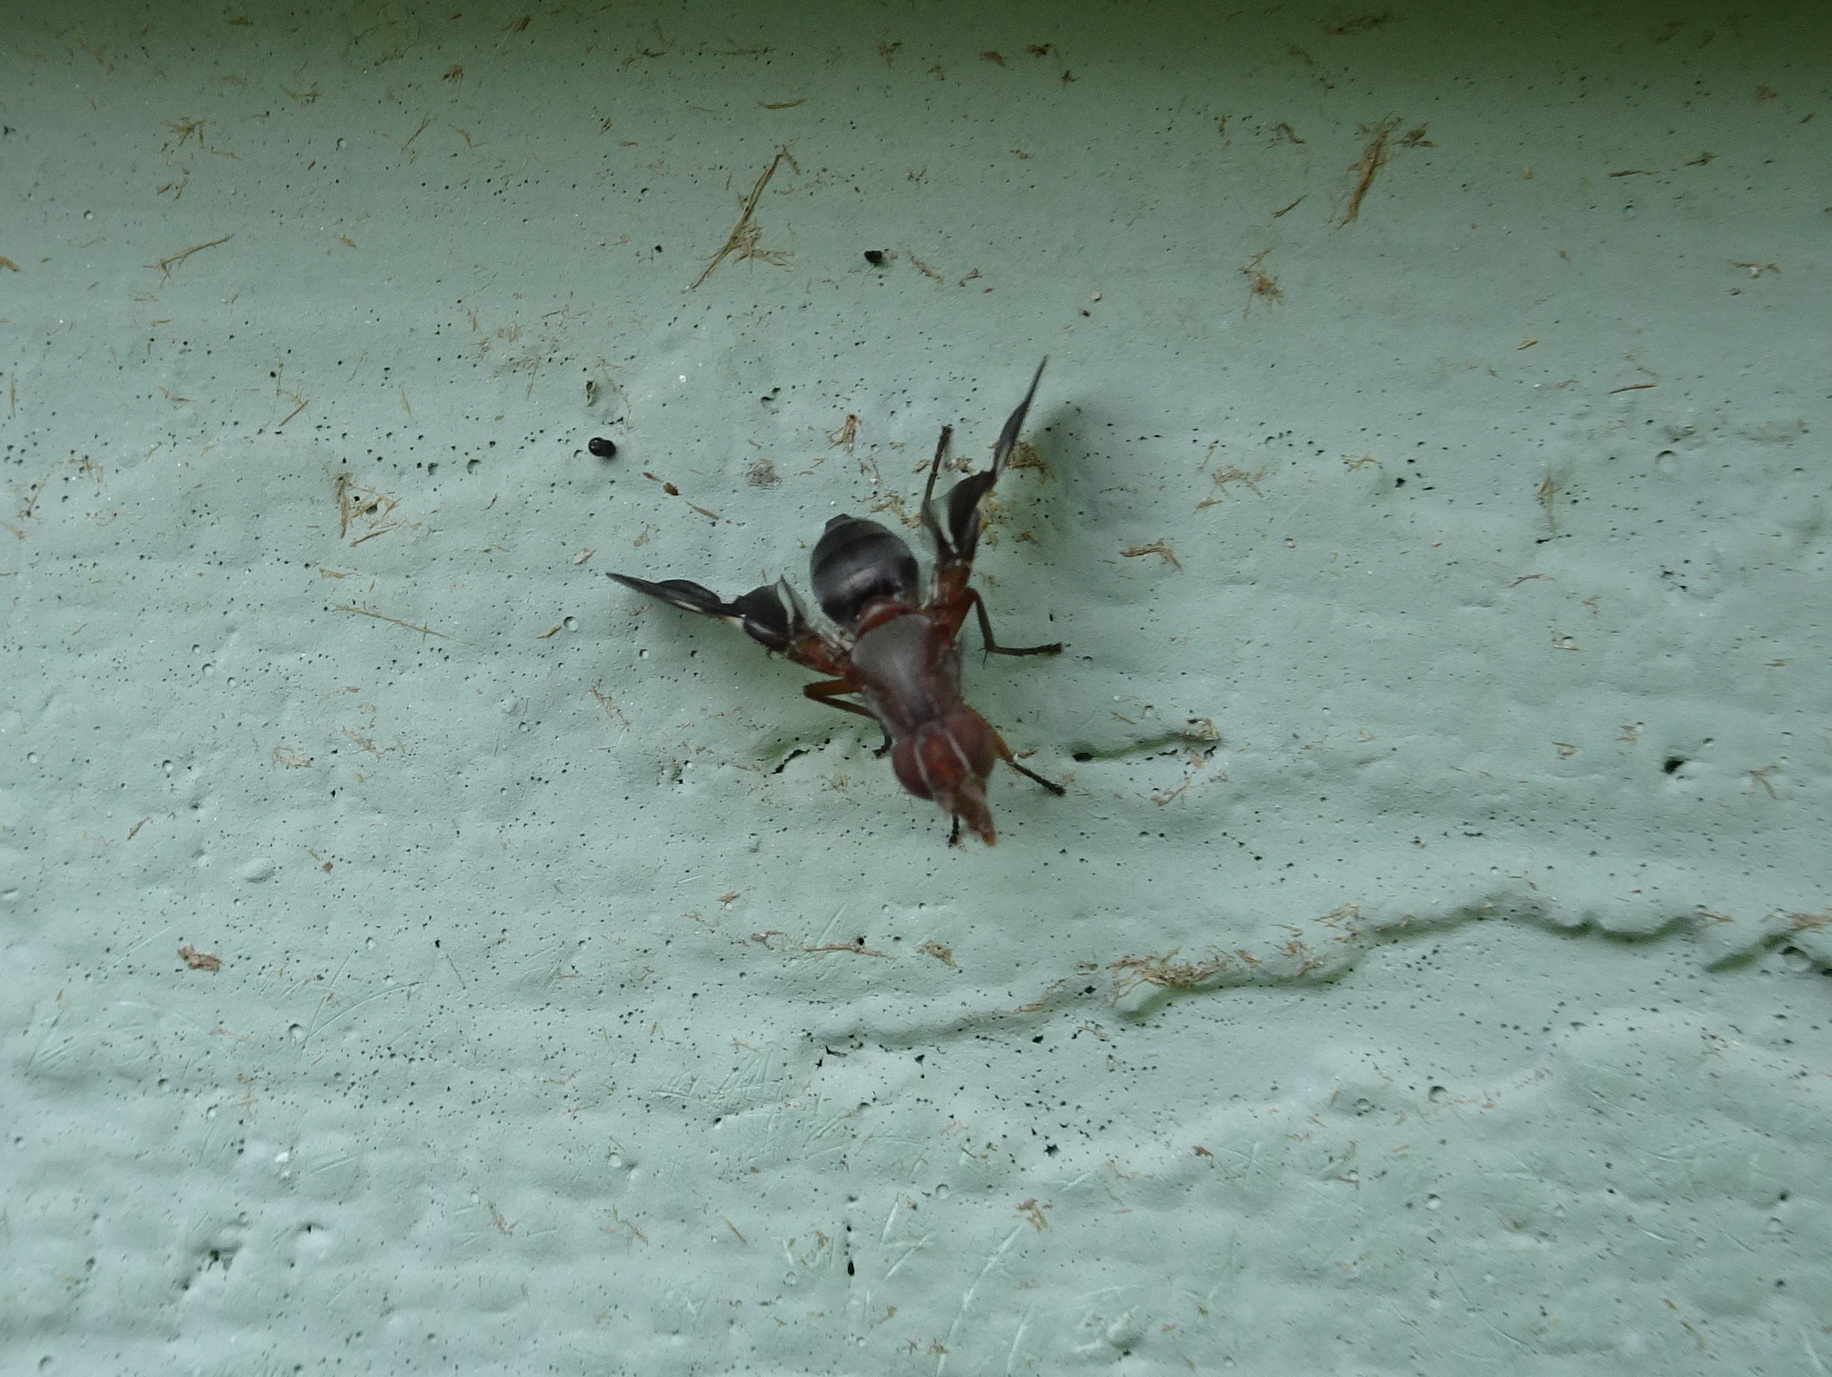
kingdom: Animalia
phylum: Arthropoda
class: Insecta
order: Diptera
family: Ulidiidae
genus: Delphinia
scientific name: Delphinia picta
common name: Common picture-winged fly
